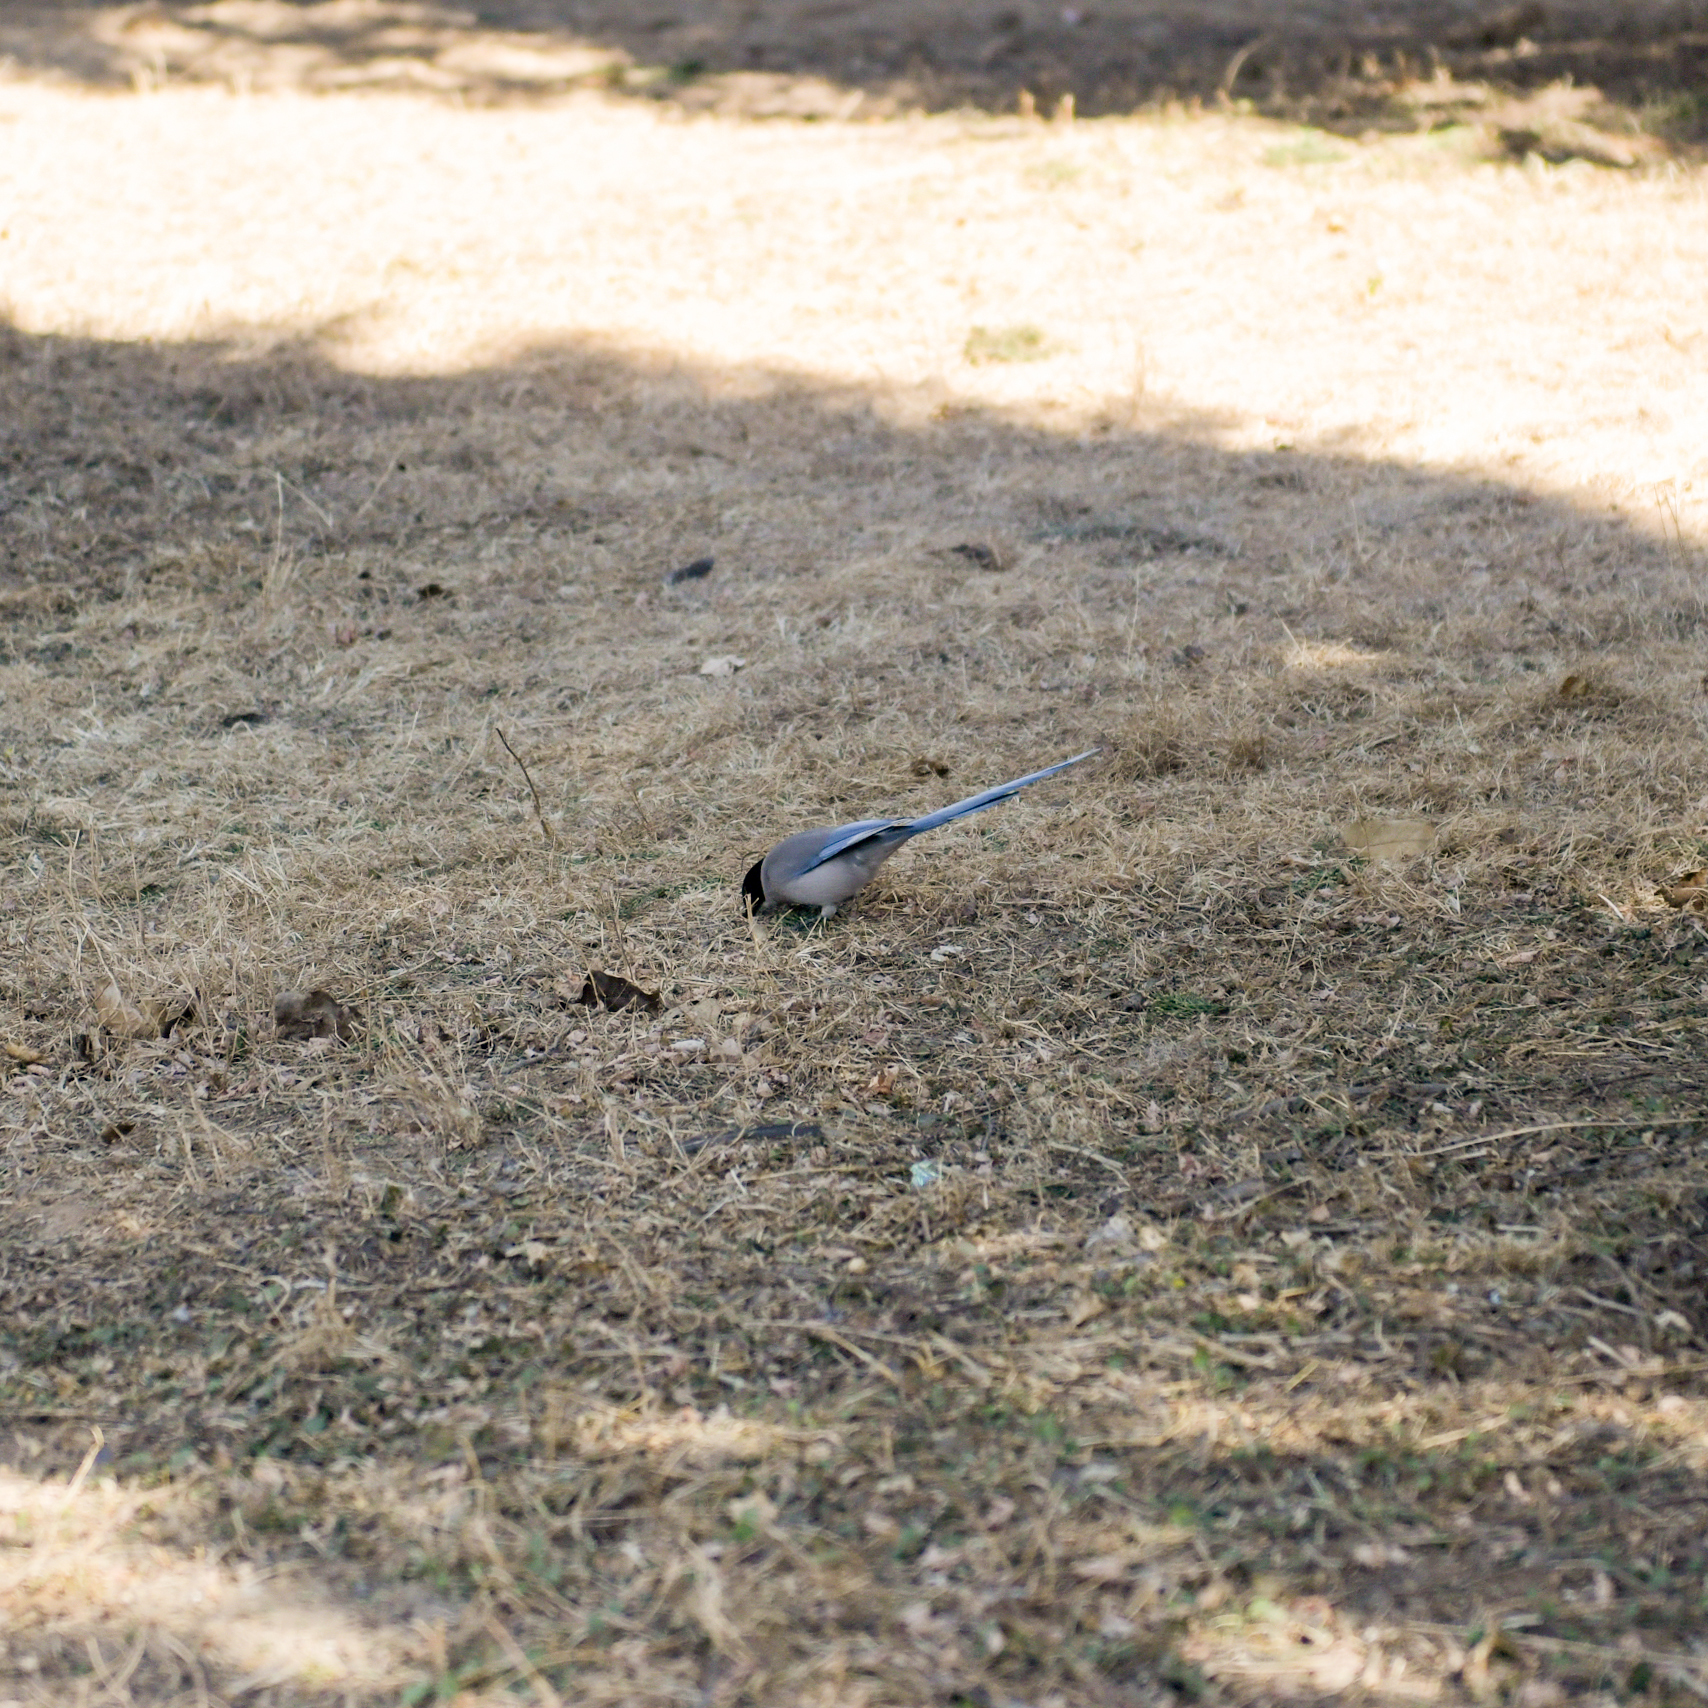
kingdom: Animalia
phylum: Chordata
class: Aves
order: Passeriformes
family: Corvidae
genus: Cyanopica
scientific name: Cyanopica cyanus
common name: Azure-winged magpie
